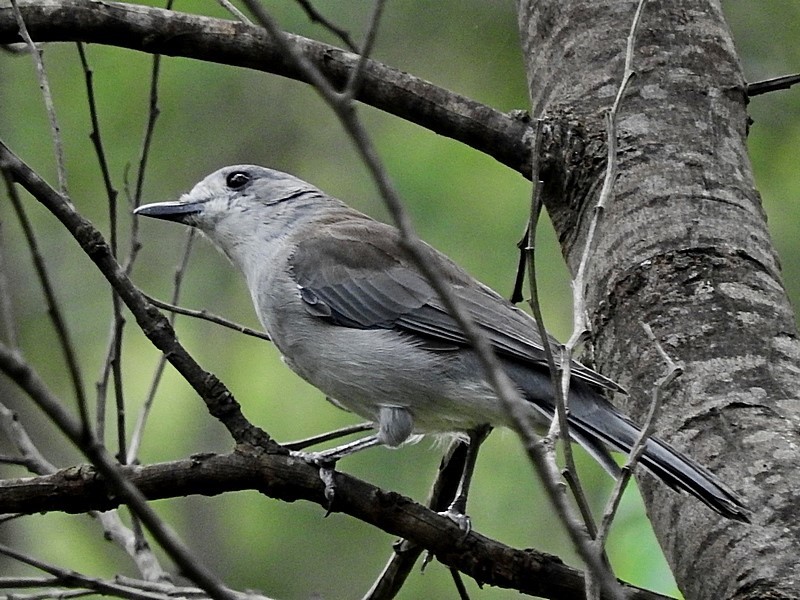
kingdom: Animalia
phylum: Chordata
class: Aves
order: Passeriformes
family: Pachycephalidae
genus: Colluricincla
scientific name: Colluricincla harmonica
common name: Grey shrikethrush
